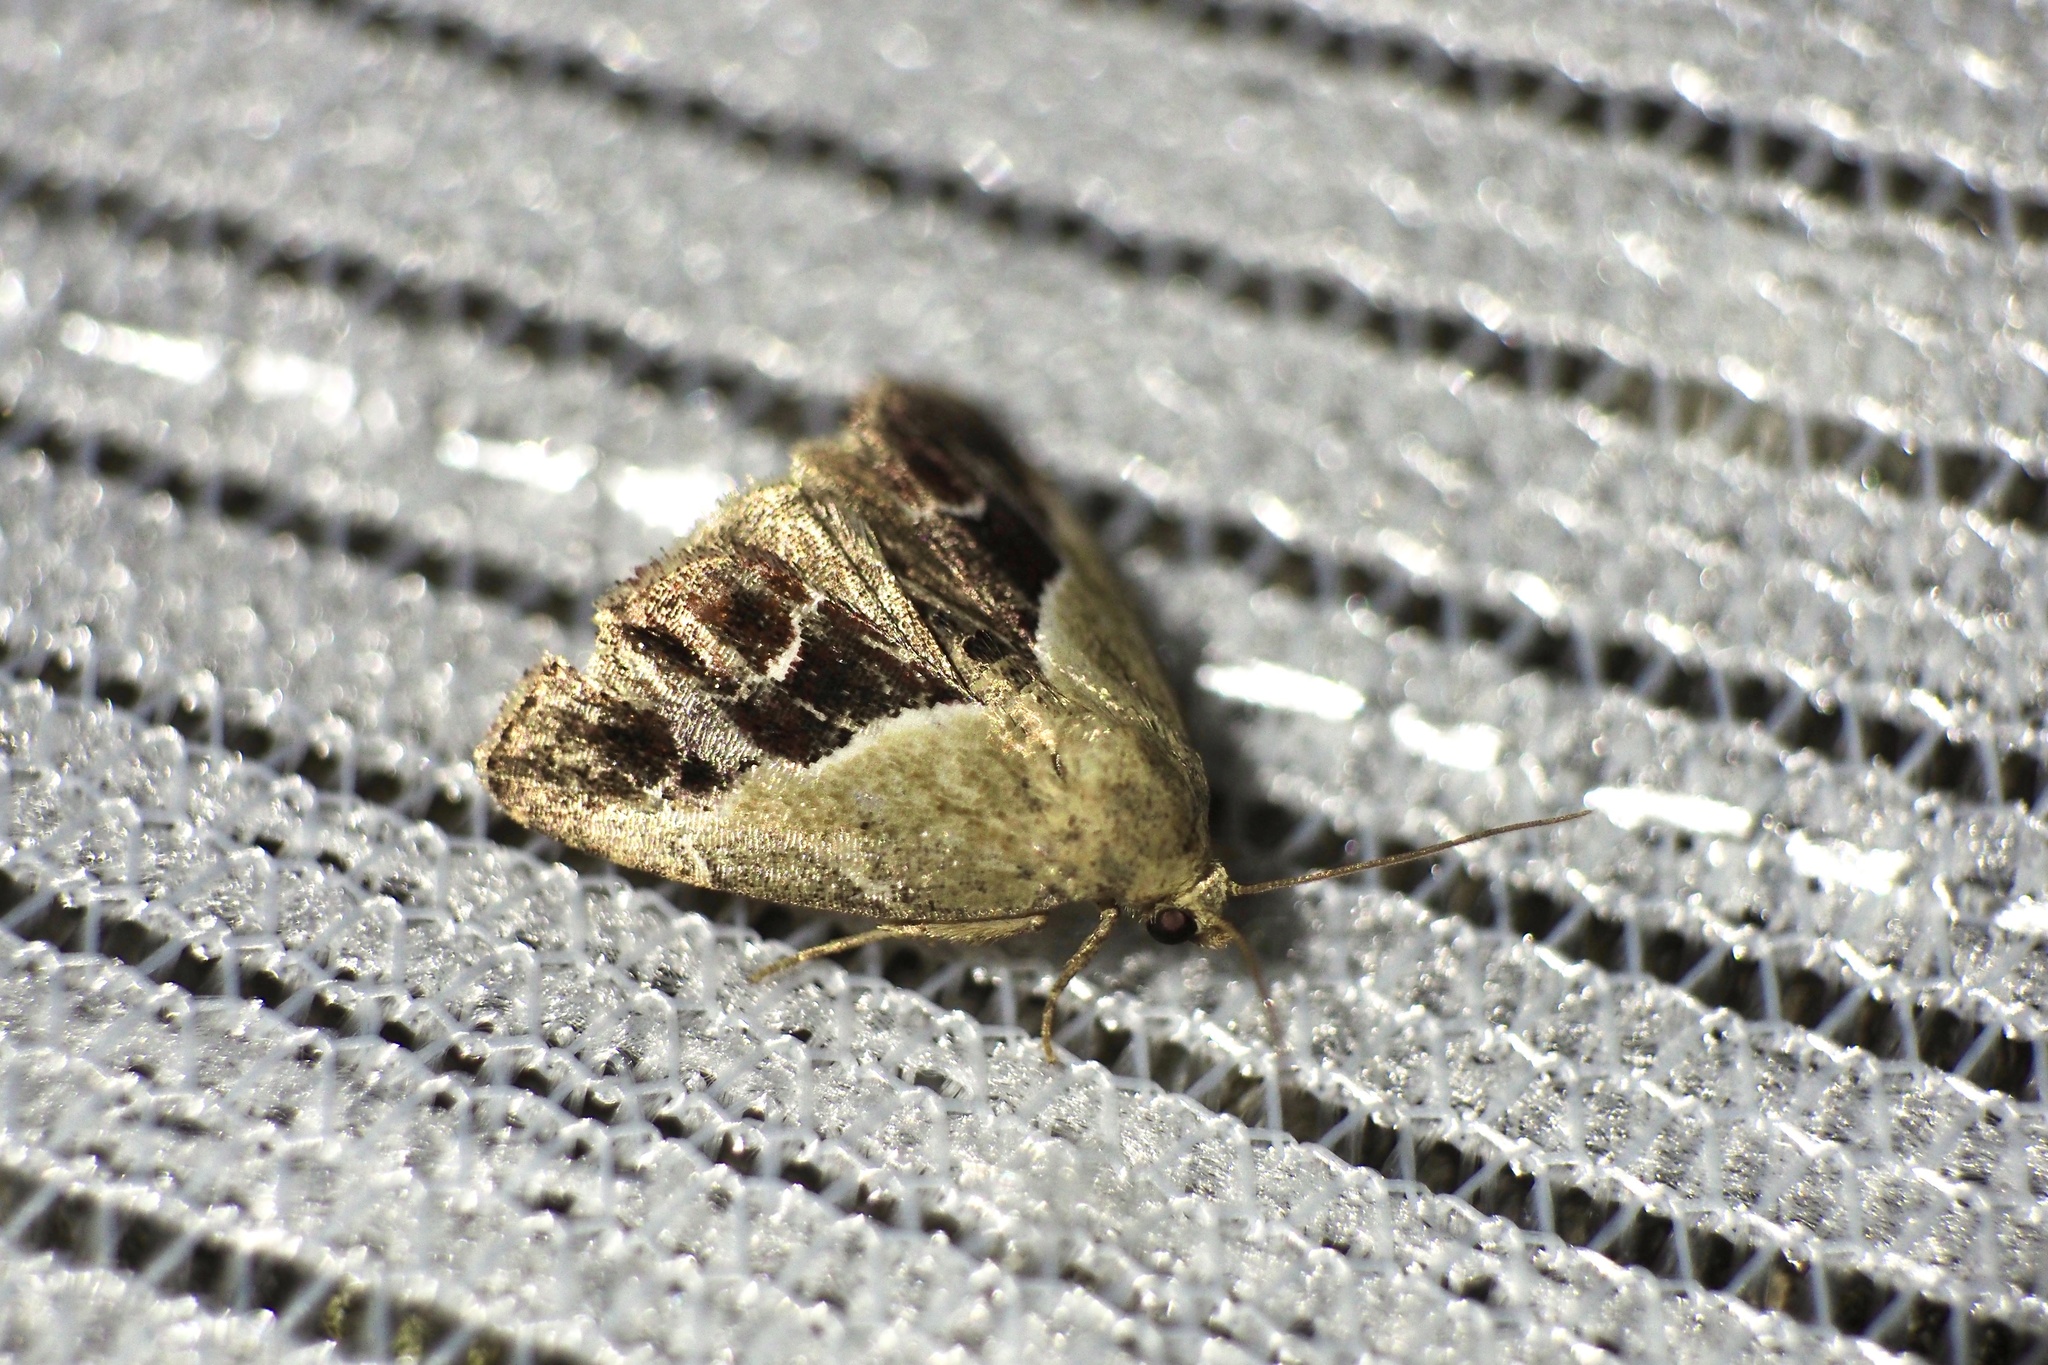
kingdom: Animalia
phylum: Arthropoda
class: Insecta
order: Lepidoptera
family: Noctuidae
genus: Maliattha
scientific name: Maliattha
